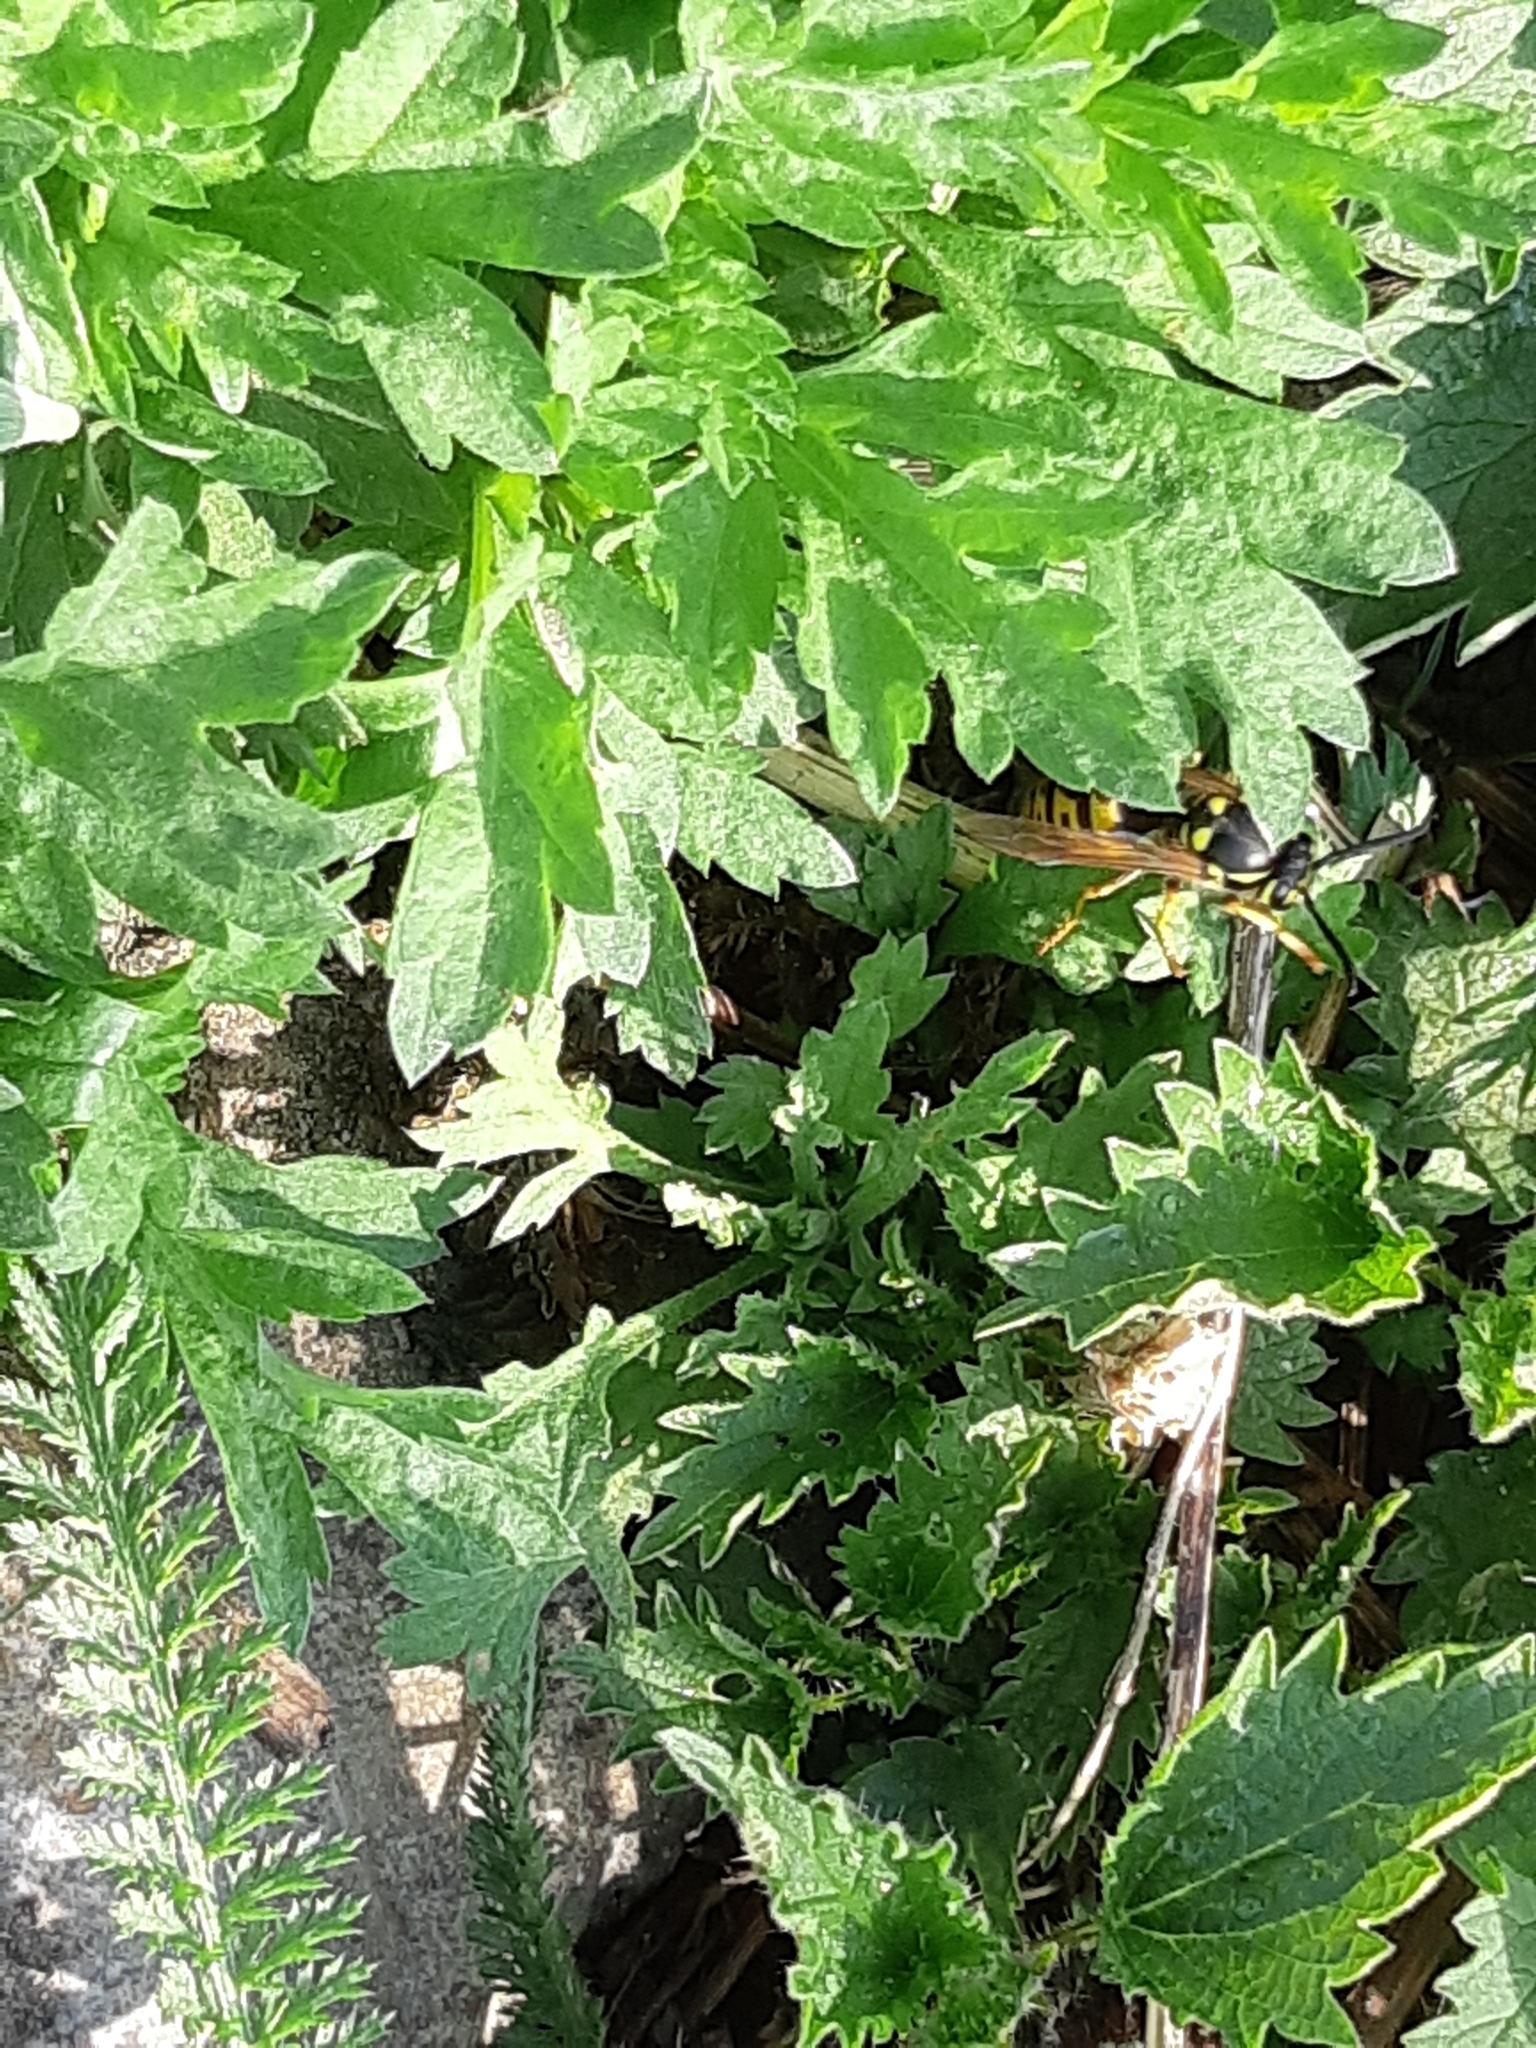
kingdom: Animalia
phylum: Arthropoda
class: Insecta
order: Hymenoptera
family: Vespidae
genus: Vespula
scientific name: Vespula germanica
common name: German wasp
